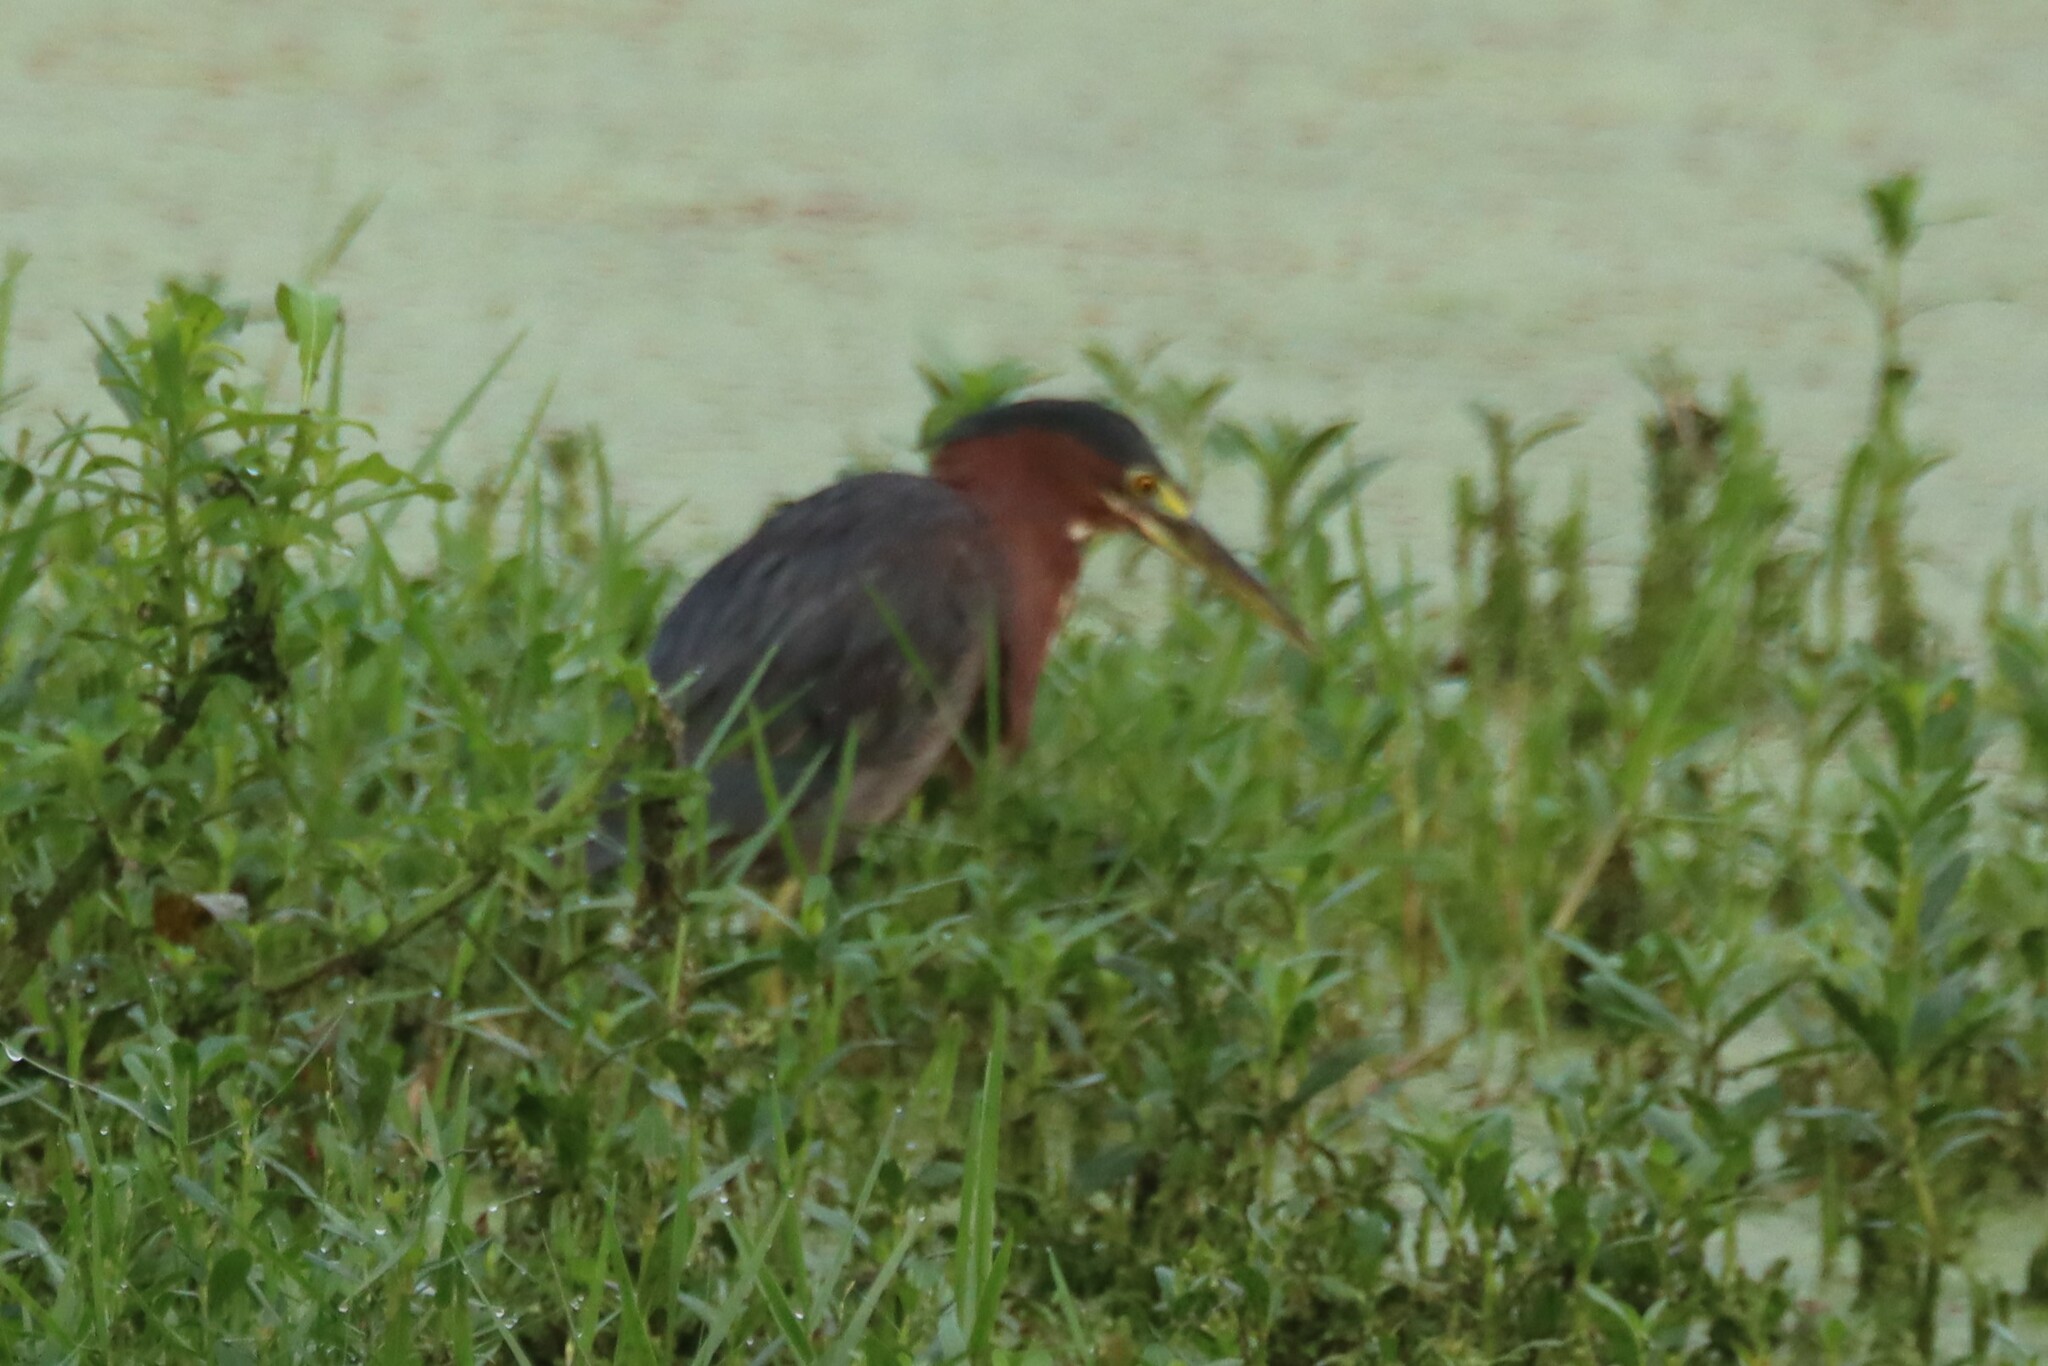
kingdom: Animalia
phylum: Chordata
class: Aves
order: Pelecaniformes
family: Ardeidae
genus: Butorides
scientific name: Butorides virescens
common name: Green heron
